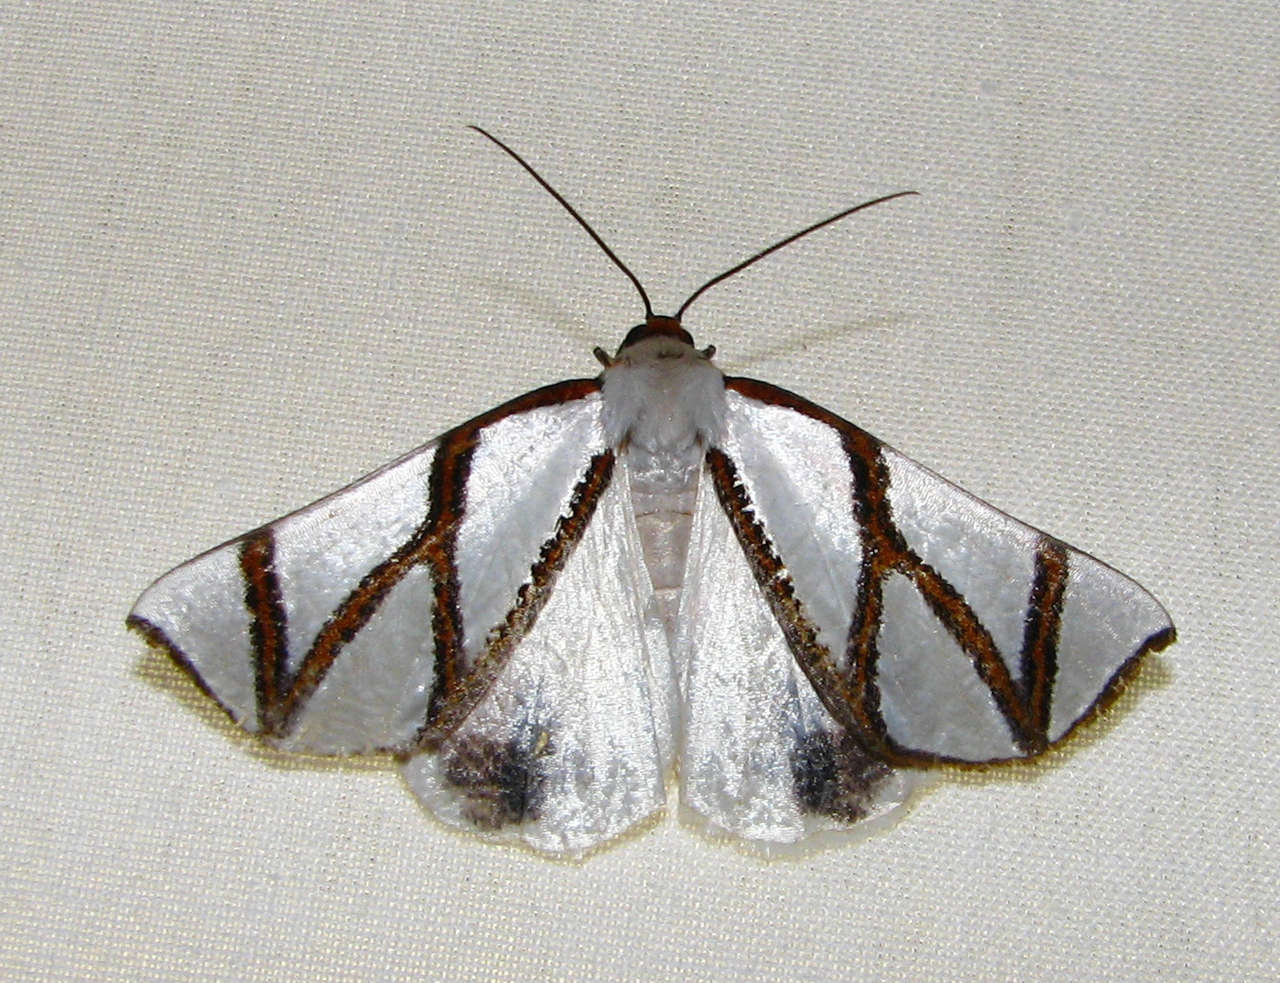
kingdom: Animalia
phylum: Arthropoda
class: Insecta
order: Lepidoptera
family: Geometridae
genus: Thalaina
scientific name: Thalaina clara
